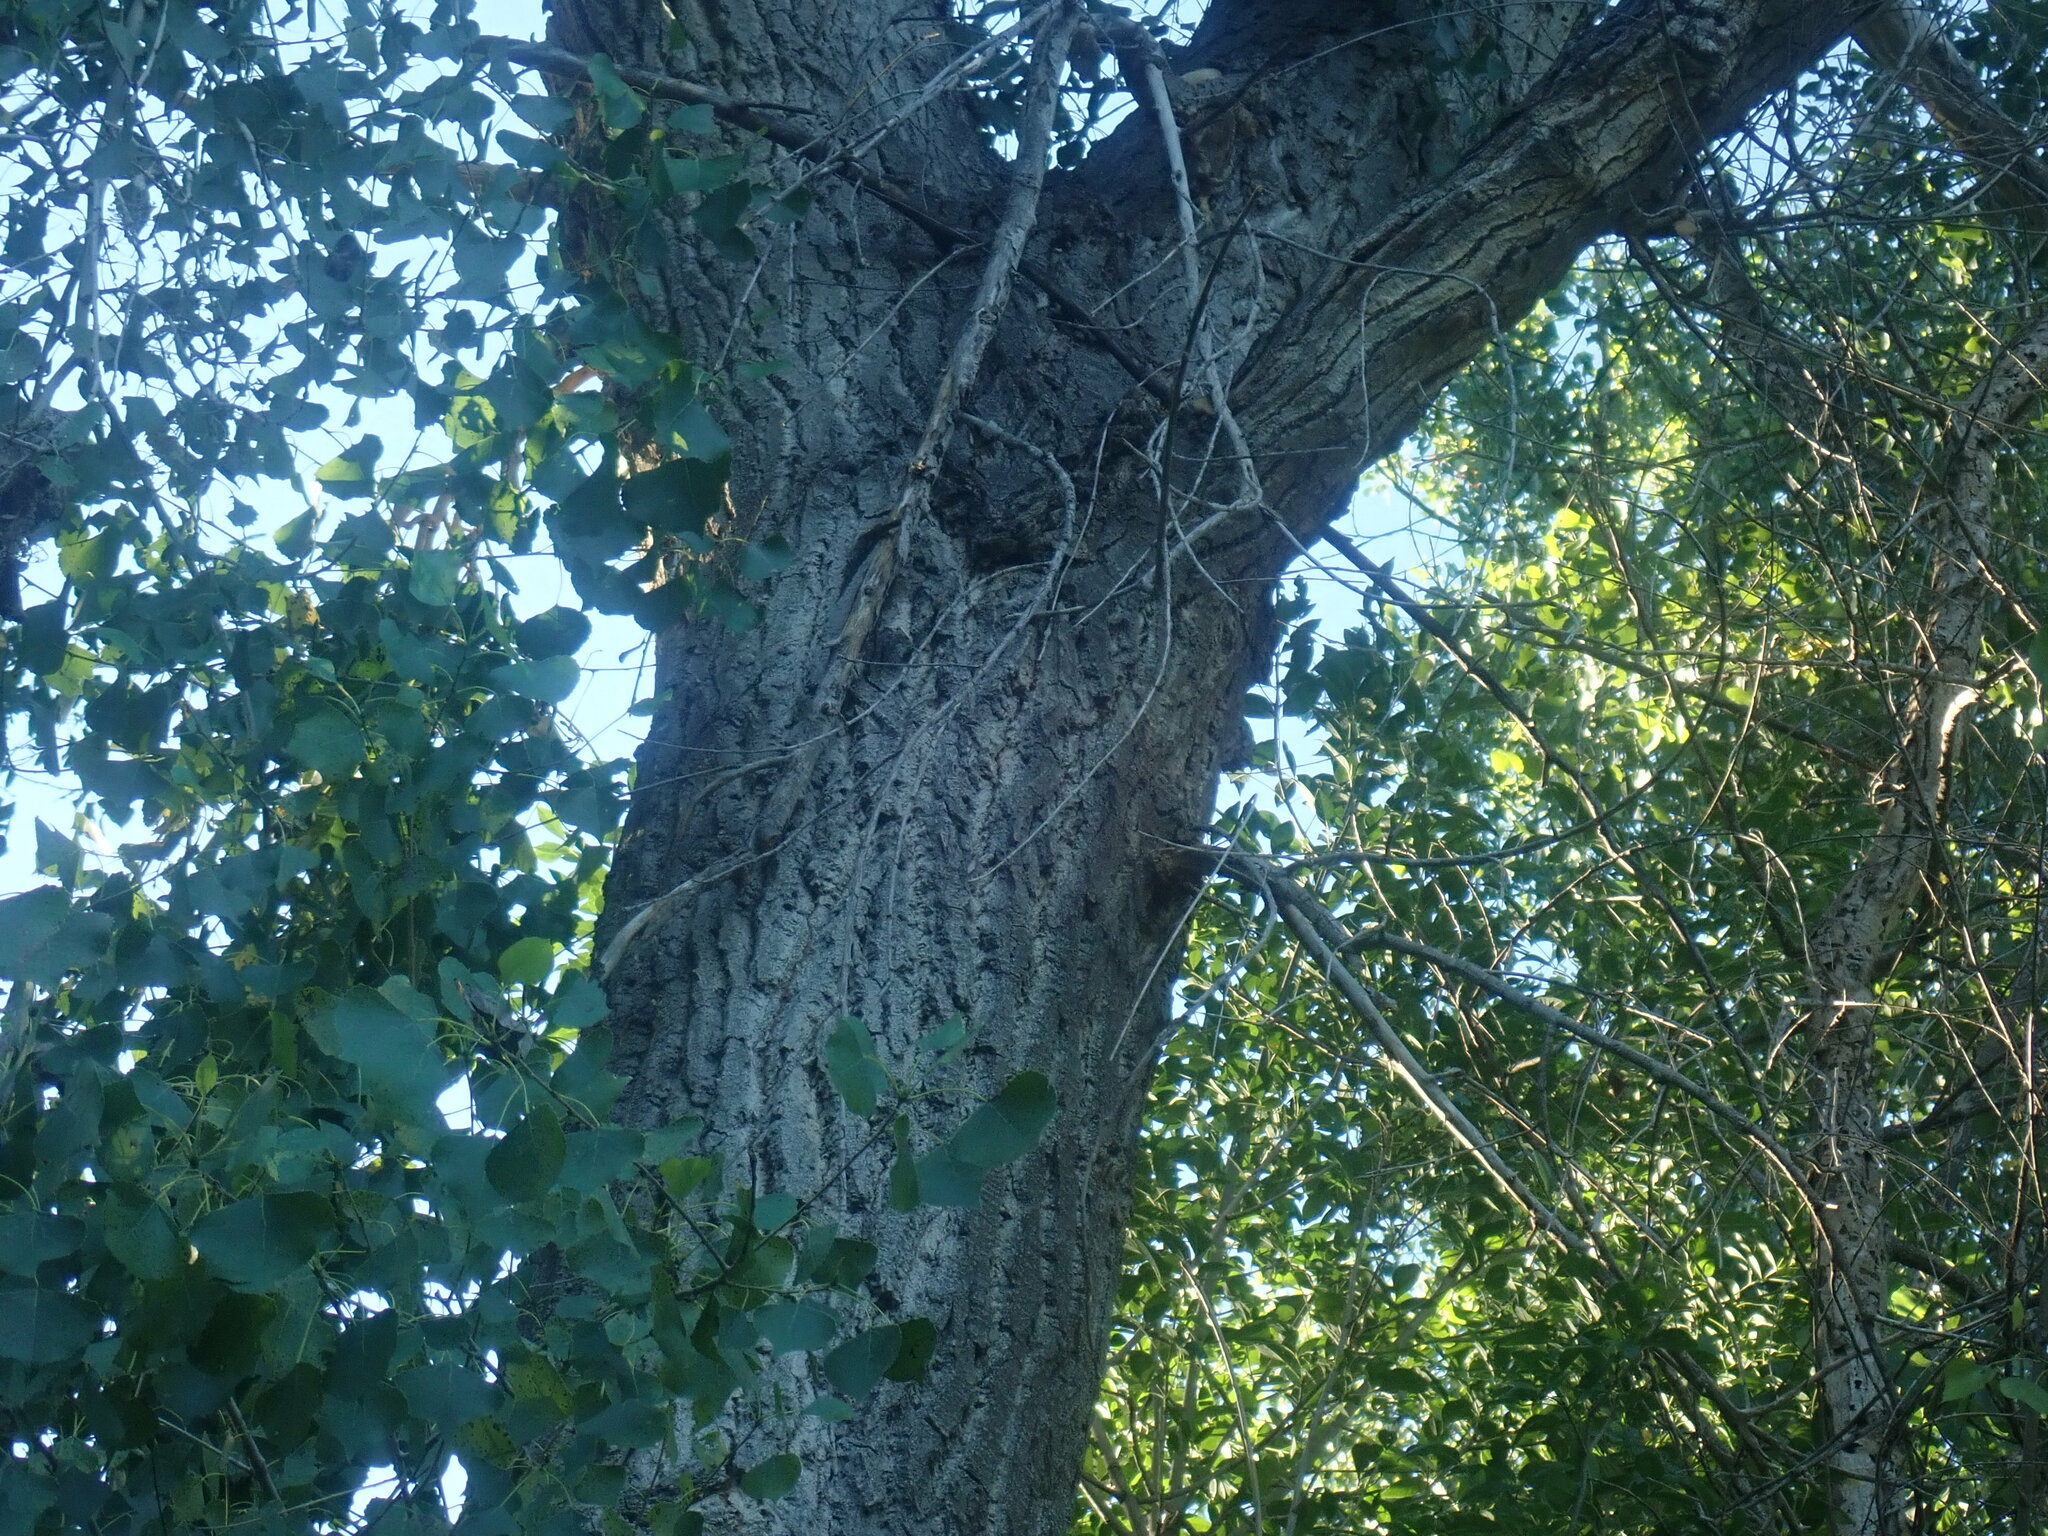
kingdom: Plantae
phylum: Tracheophyta
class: Magnoliopsida
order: Malpighiales
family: Salicaceae
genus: Populus
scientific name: Populus fremontii
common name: Fremont's cottonwood
